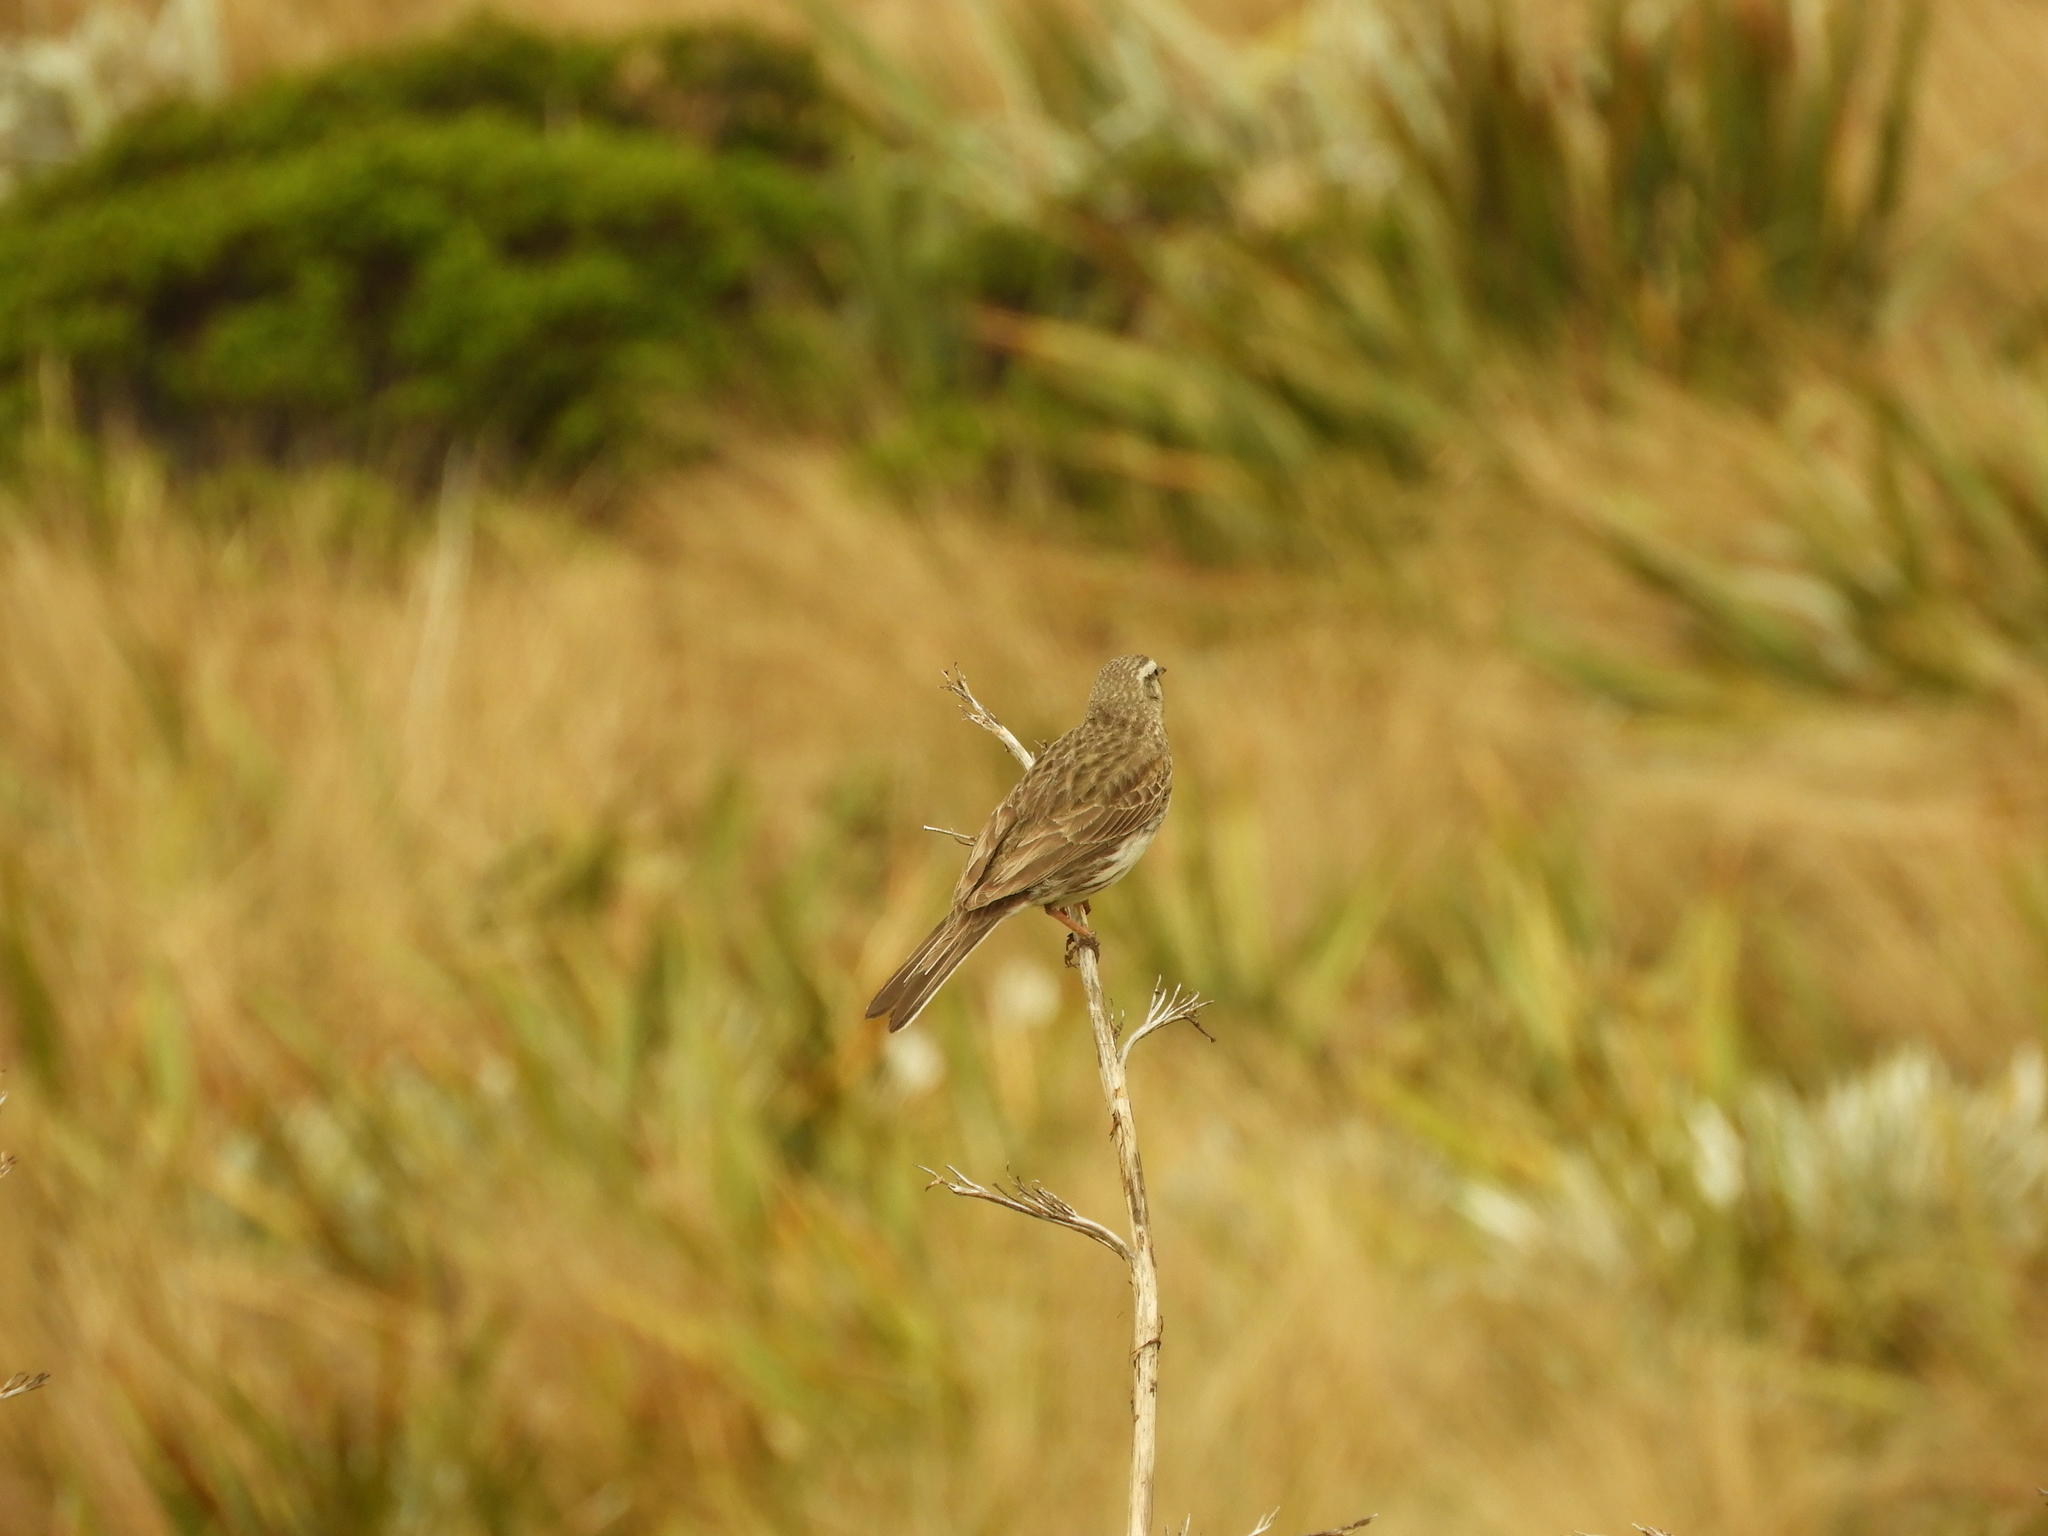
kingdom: Animalia
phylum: Chordata
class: Aves
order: Passeriformes
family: Motacillidae
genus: Anthus
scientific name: Anthus novaeseelandiae
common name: New zealand pipit
